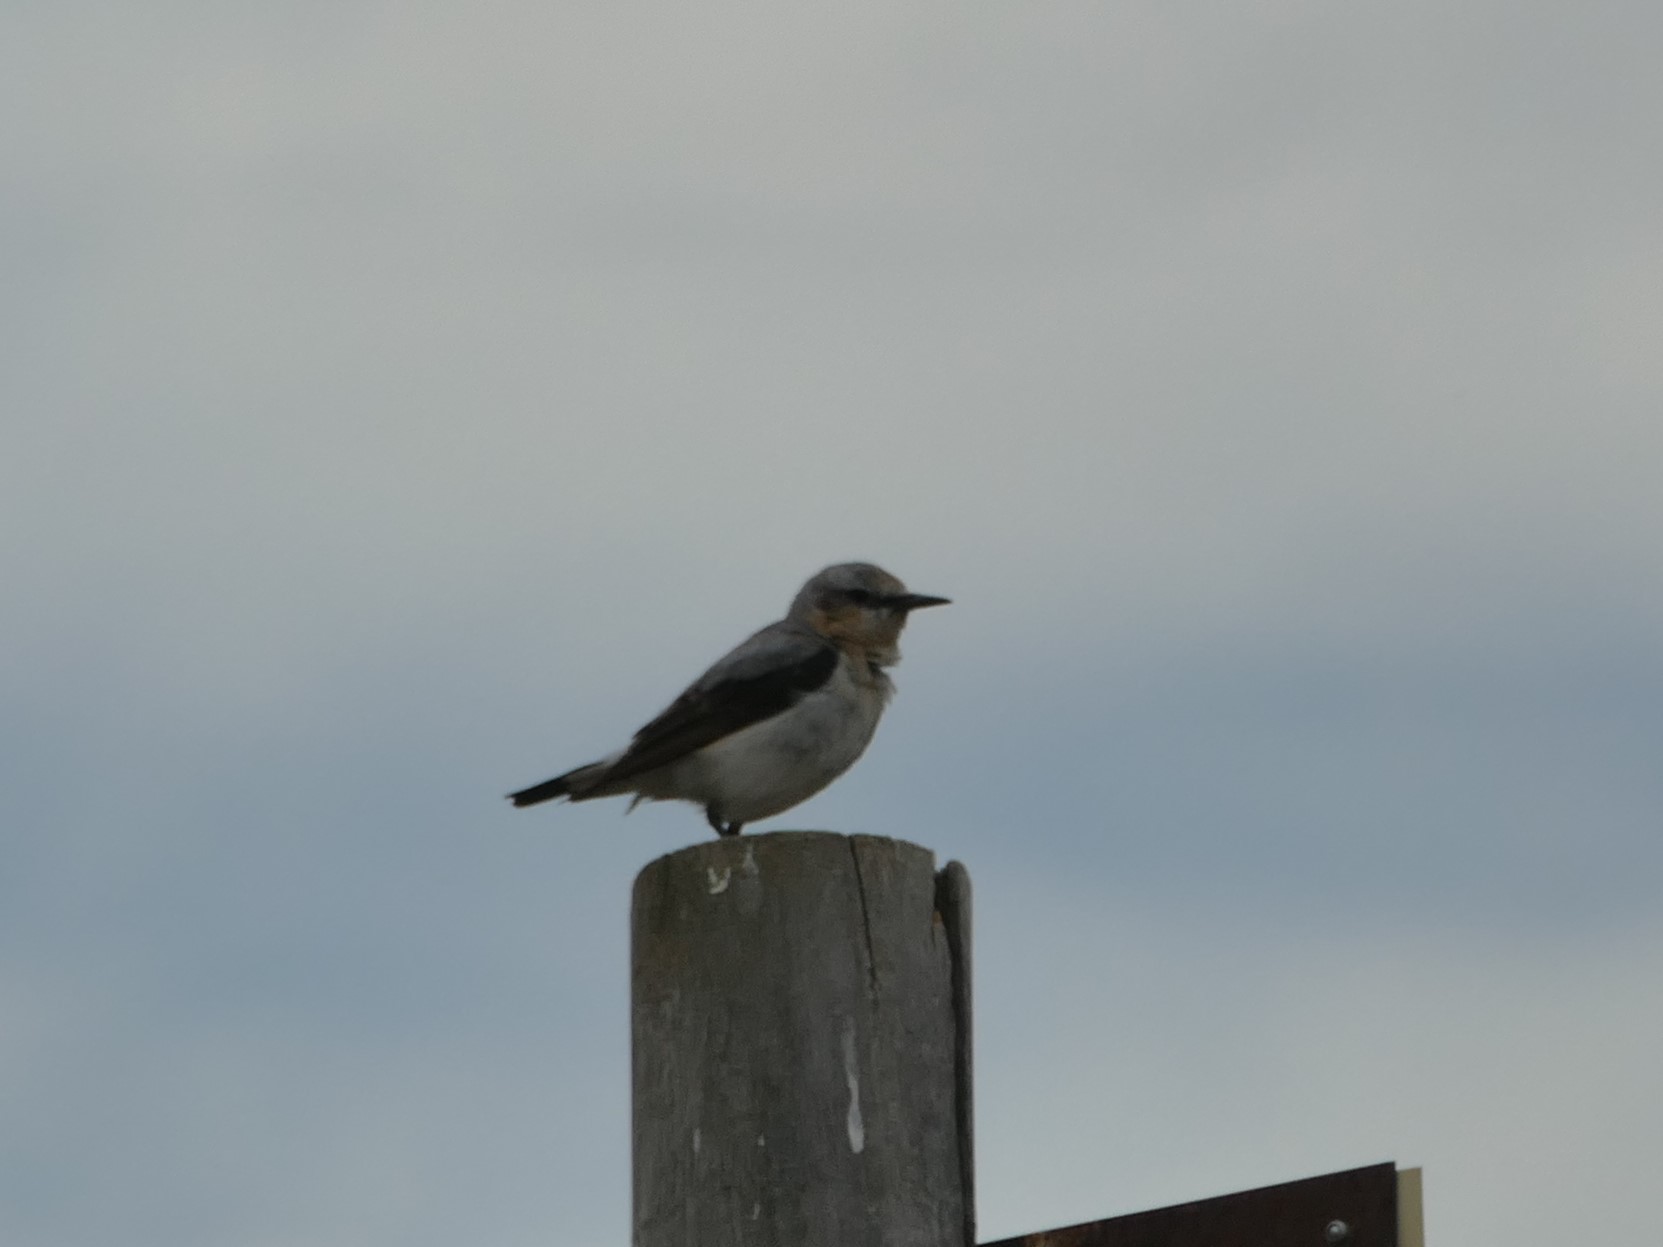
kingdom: Animalia
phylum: Chordata
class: Aves
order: Passeriformes
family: Muscicapidae
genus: Oenanthe
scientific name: Oenanthe oenanthe
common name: Northern wheatear
